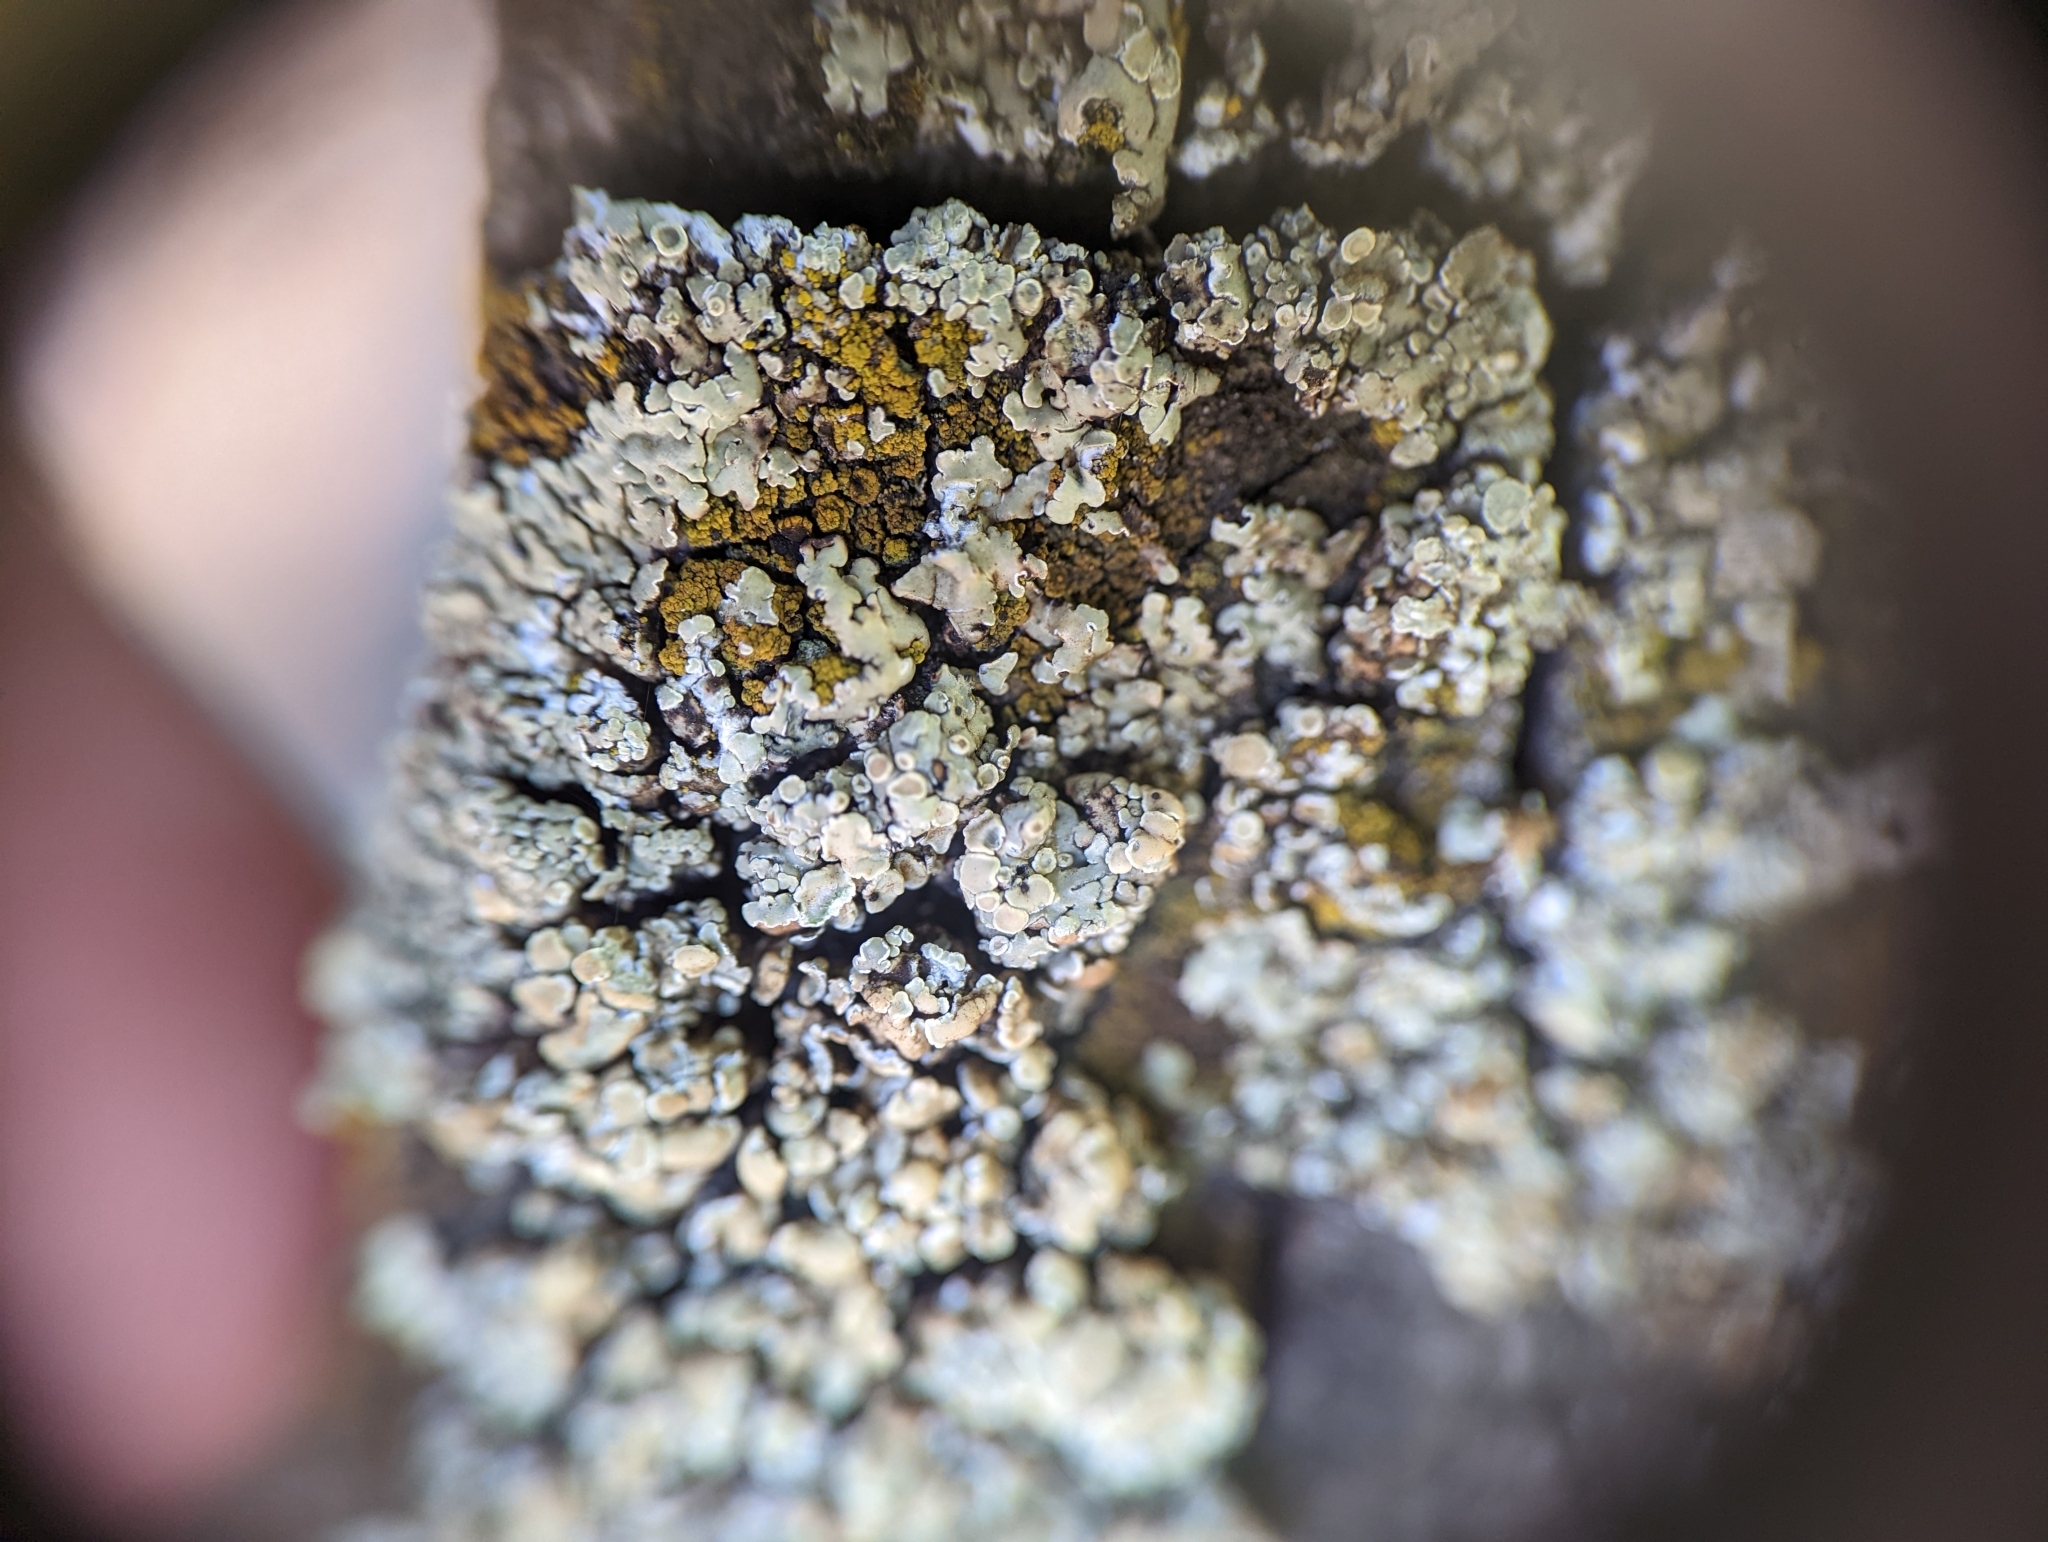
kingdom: Fungi
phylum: Ascomycota
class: Lecanoromycetes
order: Lecanorales
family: Lecanoraceae
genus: Protoparmeliopsis
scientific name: Protoparmeliopsis muralis
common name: Stonewall rim lichen
